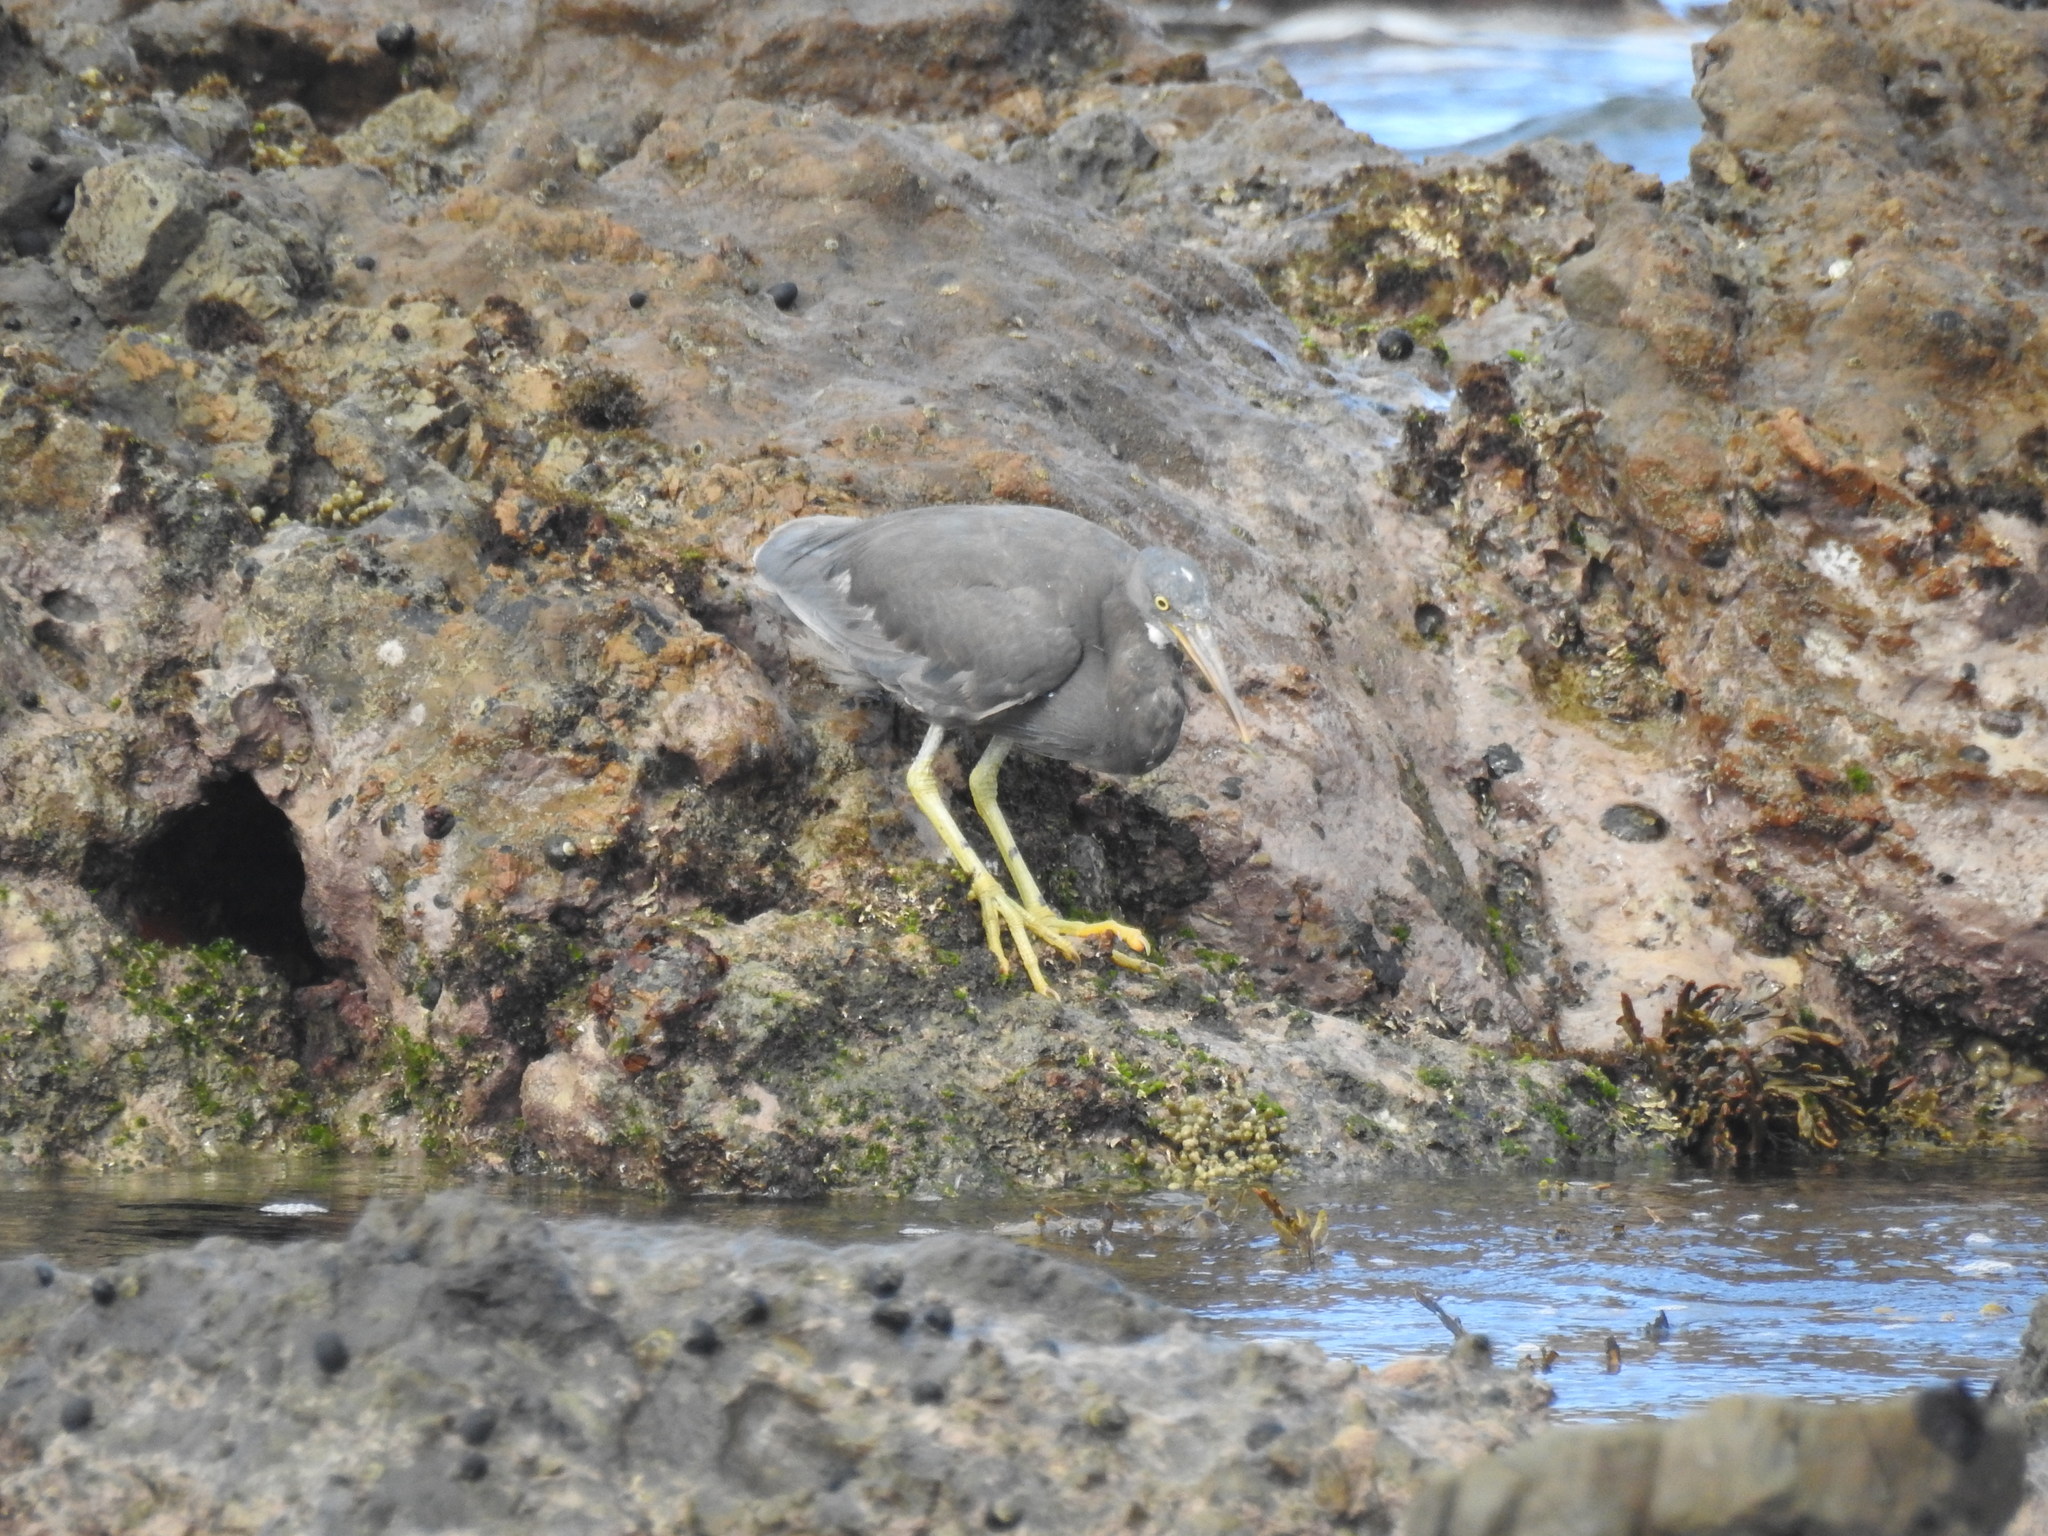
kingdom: Animalia
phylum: Chordata
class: Aves
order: Pelecaniformes
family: Ardeidae
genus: Egretta
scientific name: Egretta sacra
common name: Pacific reef heron
